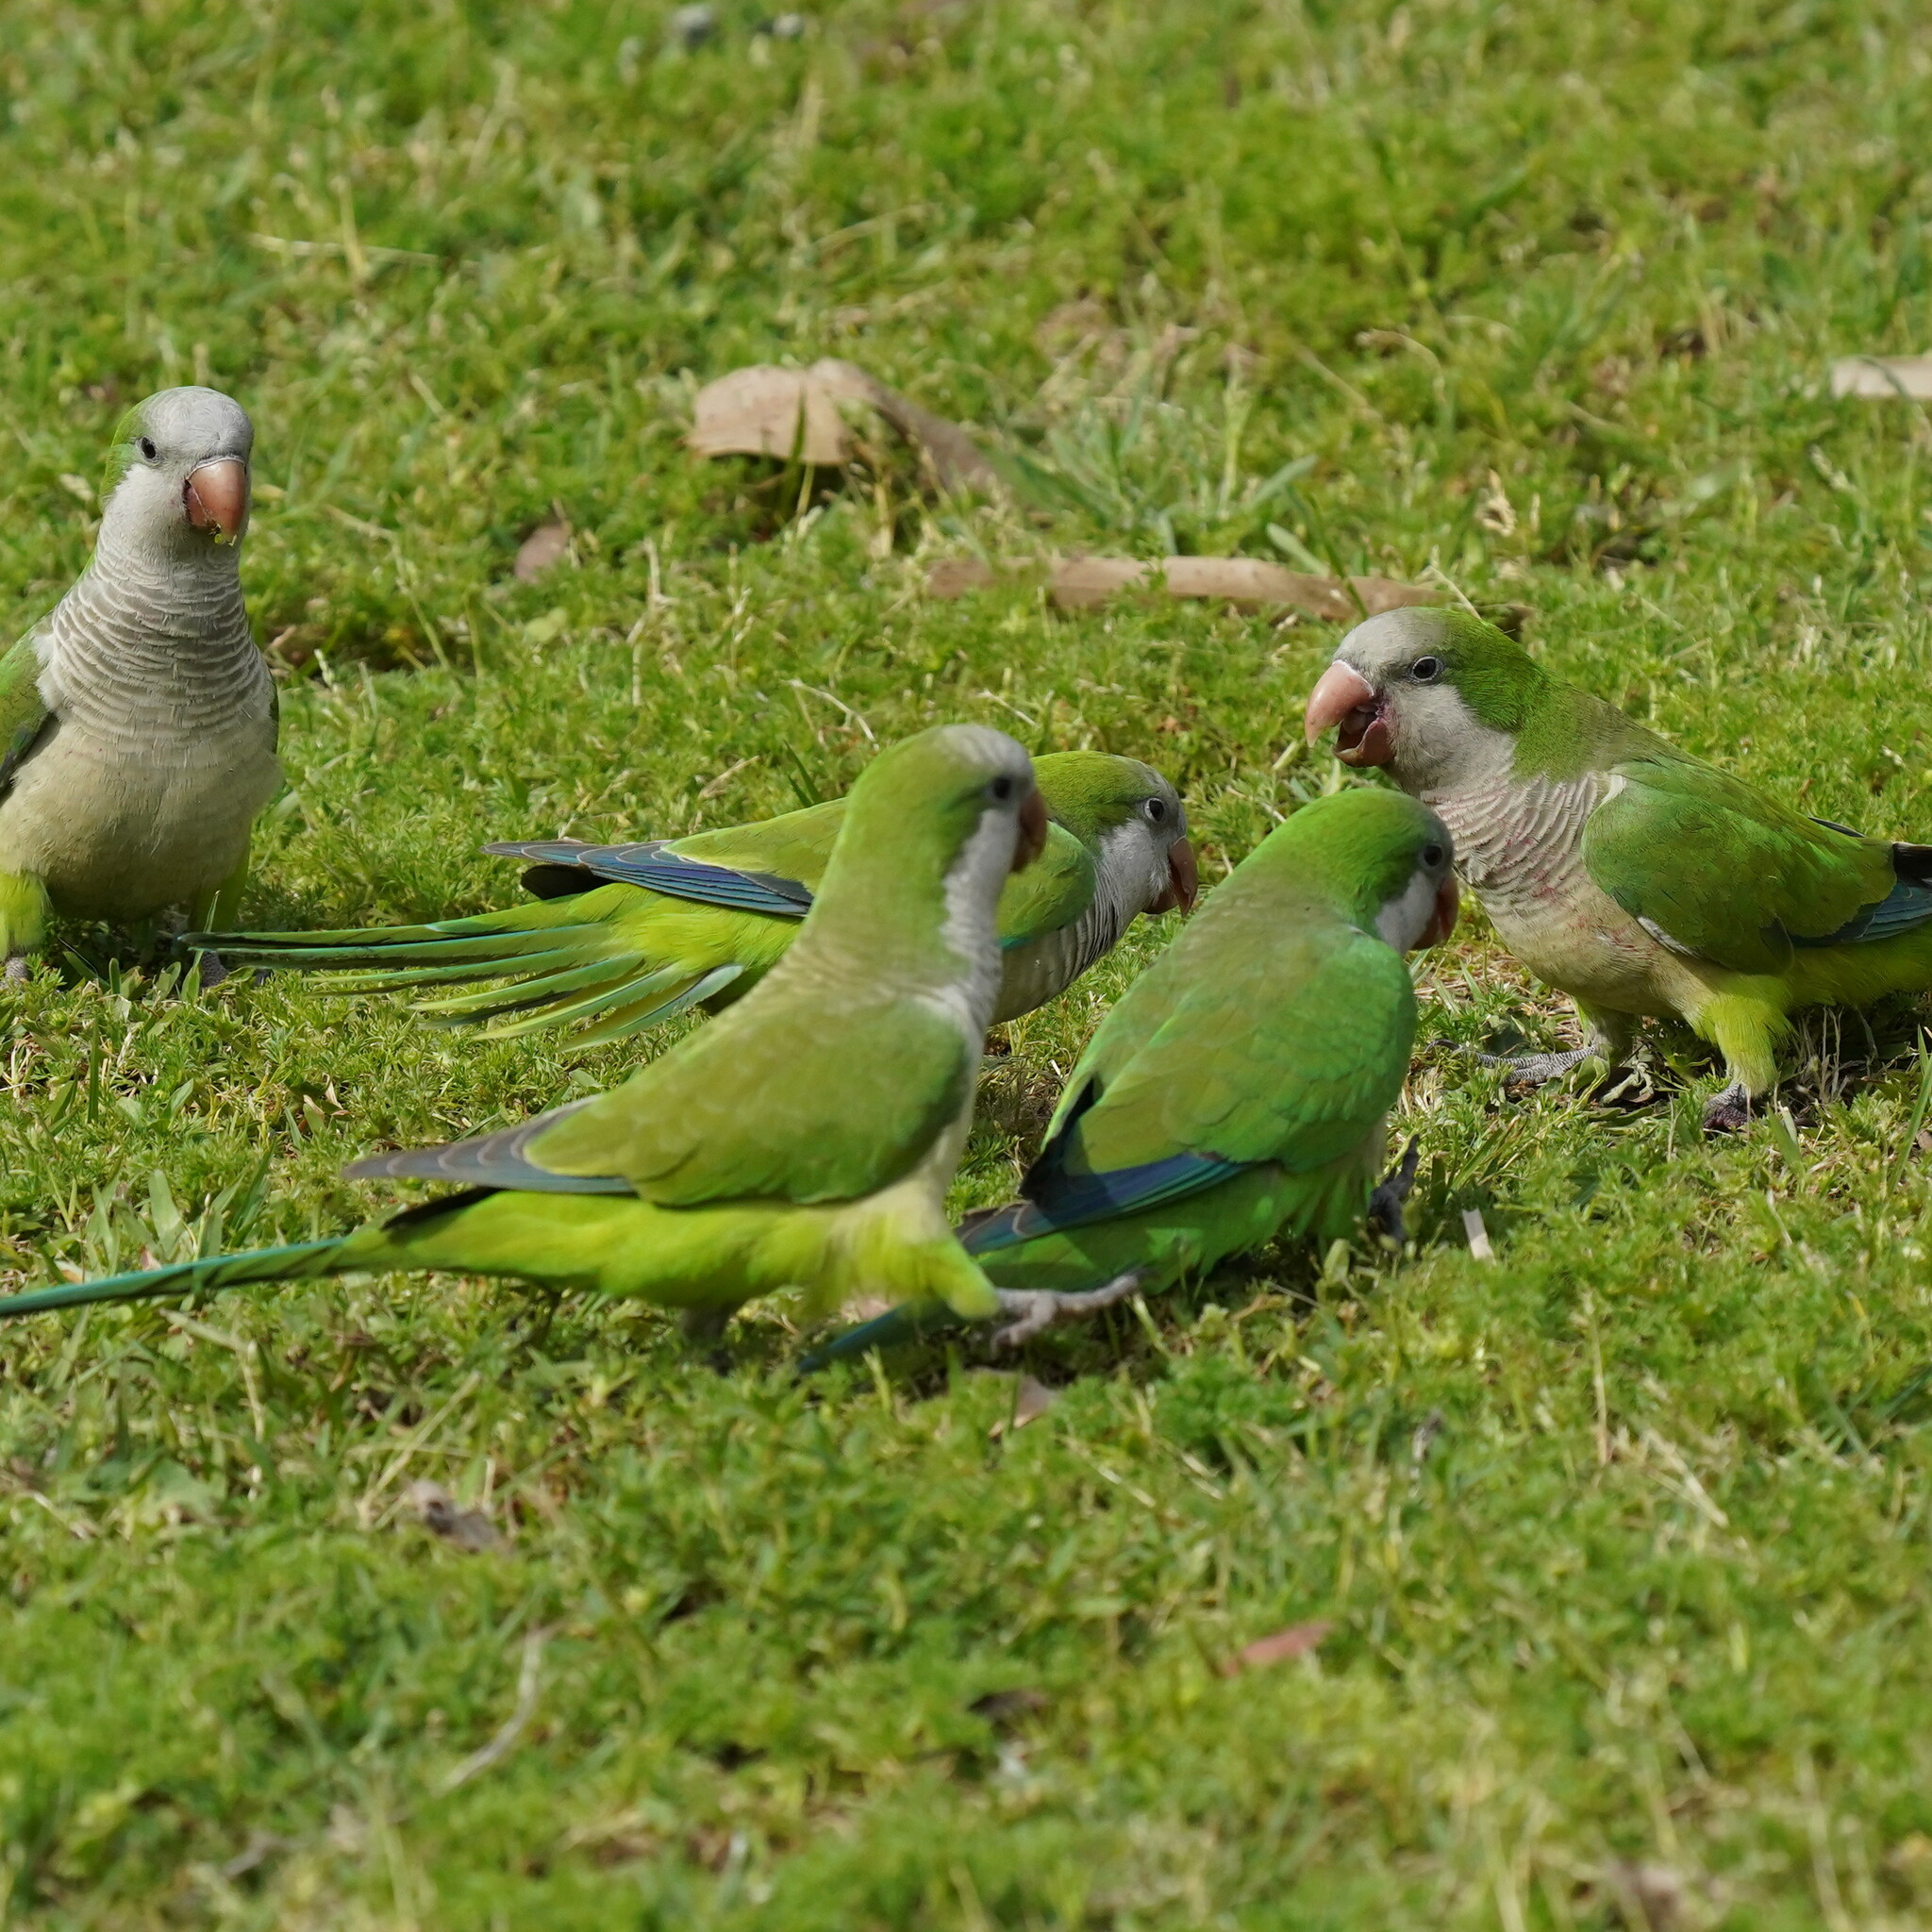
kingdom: Animalia
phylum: Chordata
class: Aves
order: Psittaciformes
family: Psittacidae
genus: Myiopsitta
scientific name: Myiopsitta monachus
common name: Monk parakeet
